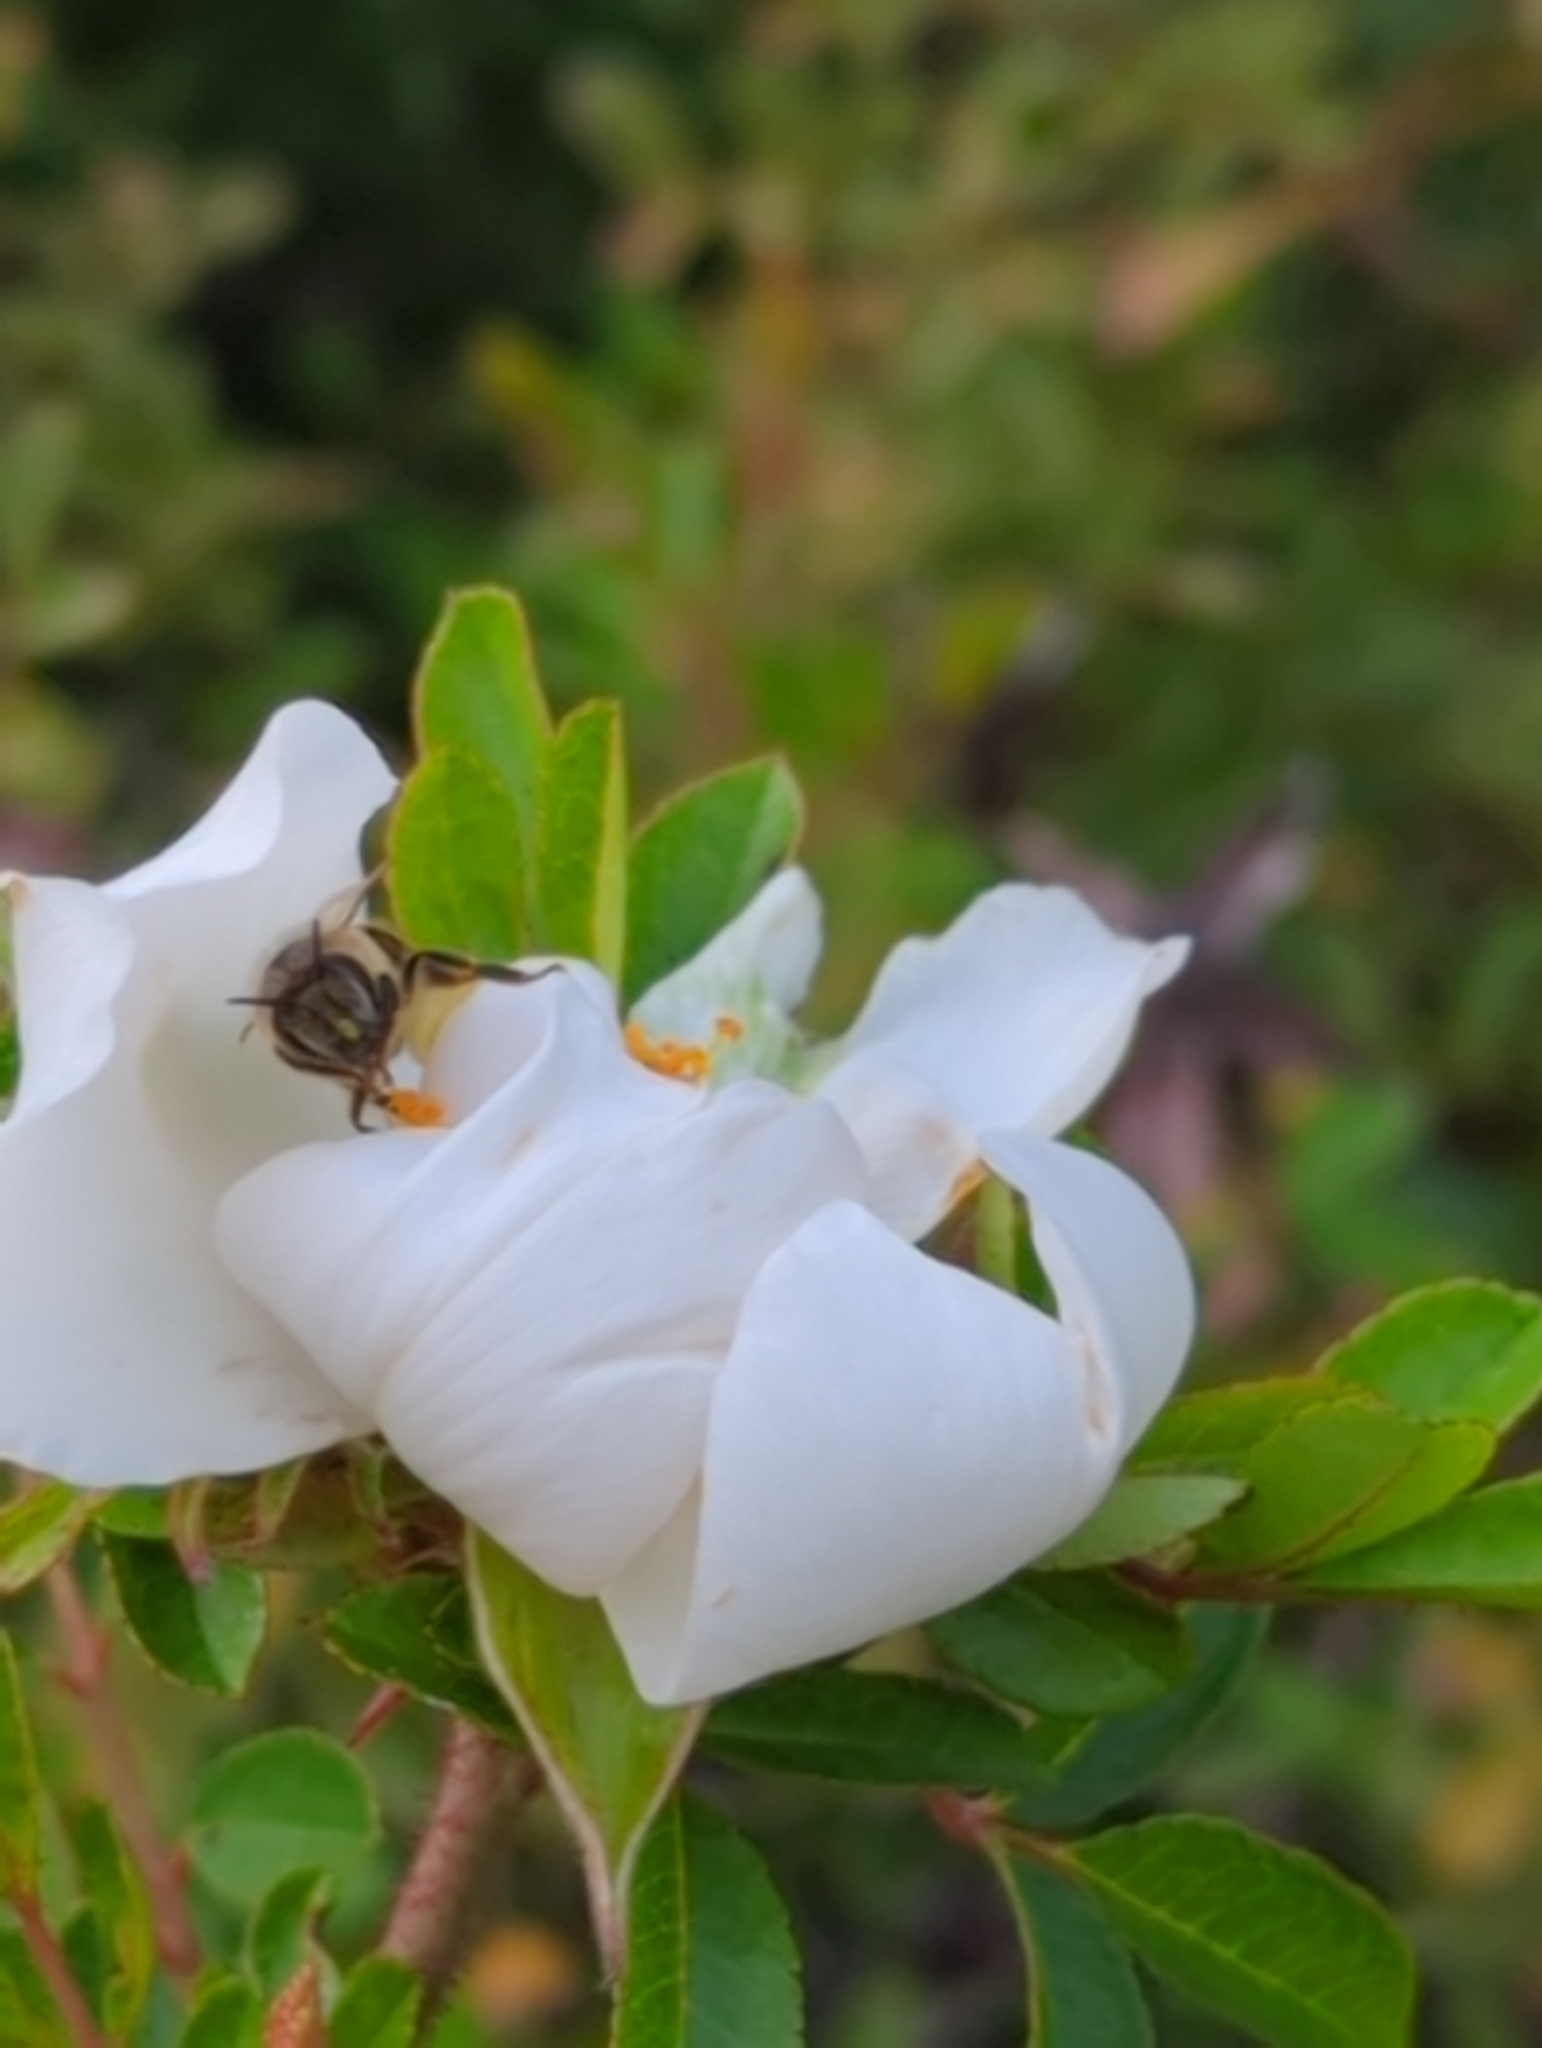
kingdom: Animalia
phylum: Arthropoda
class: Insecta
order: Hymenoptera
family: Apidae
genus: Apis
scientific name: Apis mellifera
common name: Honey bee
